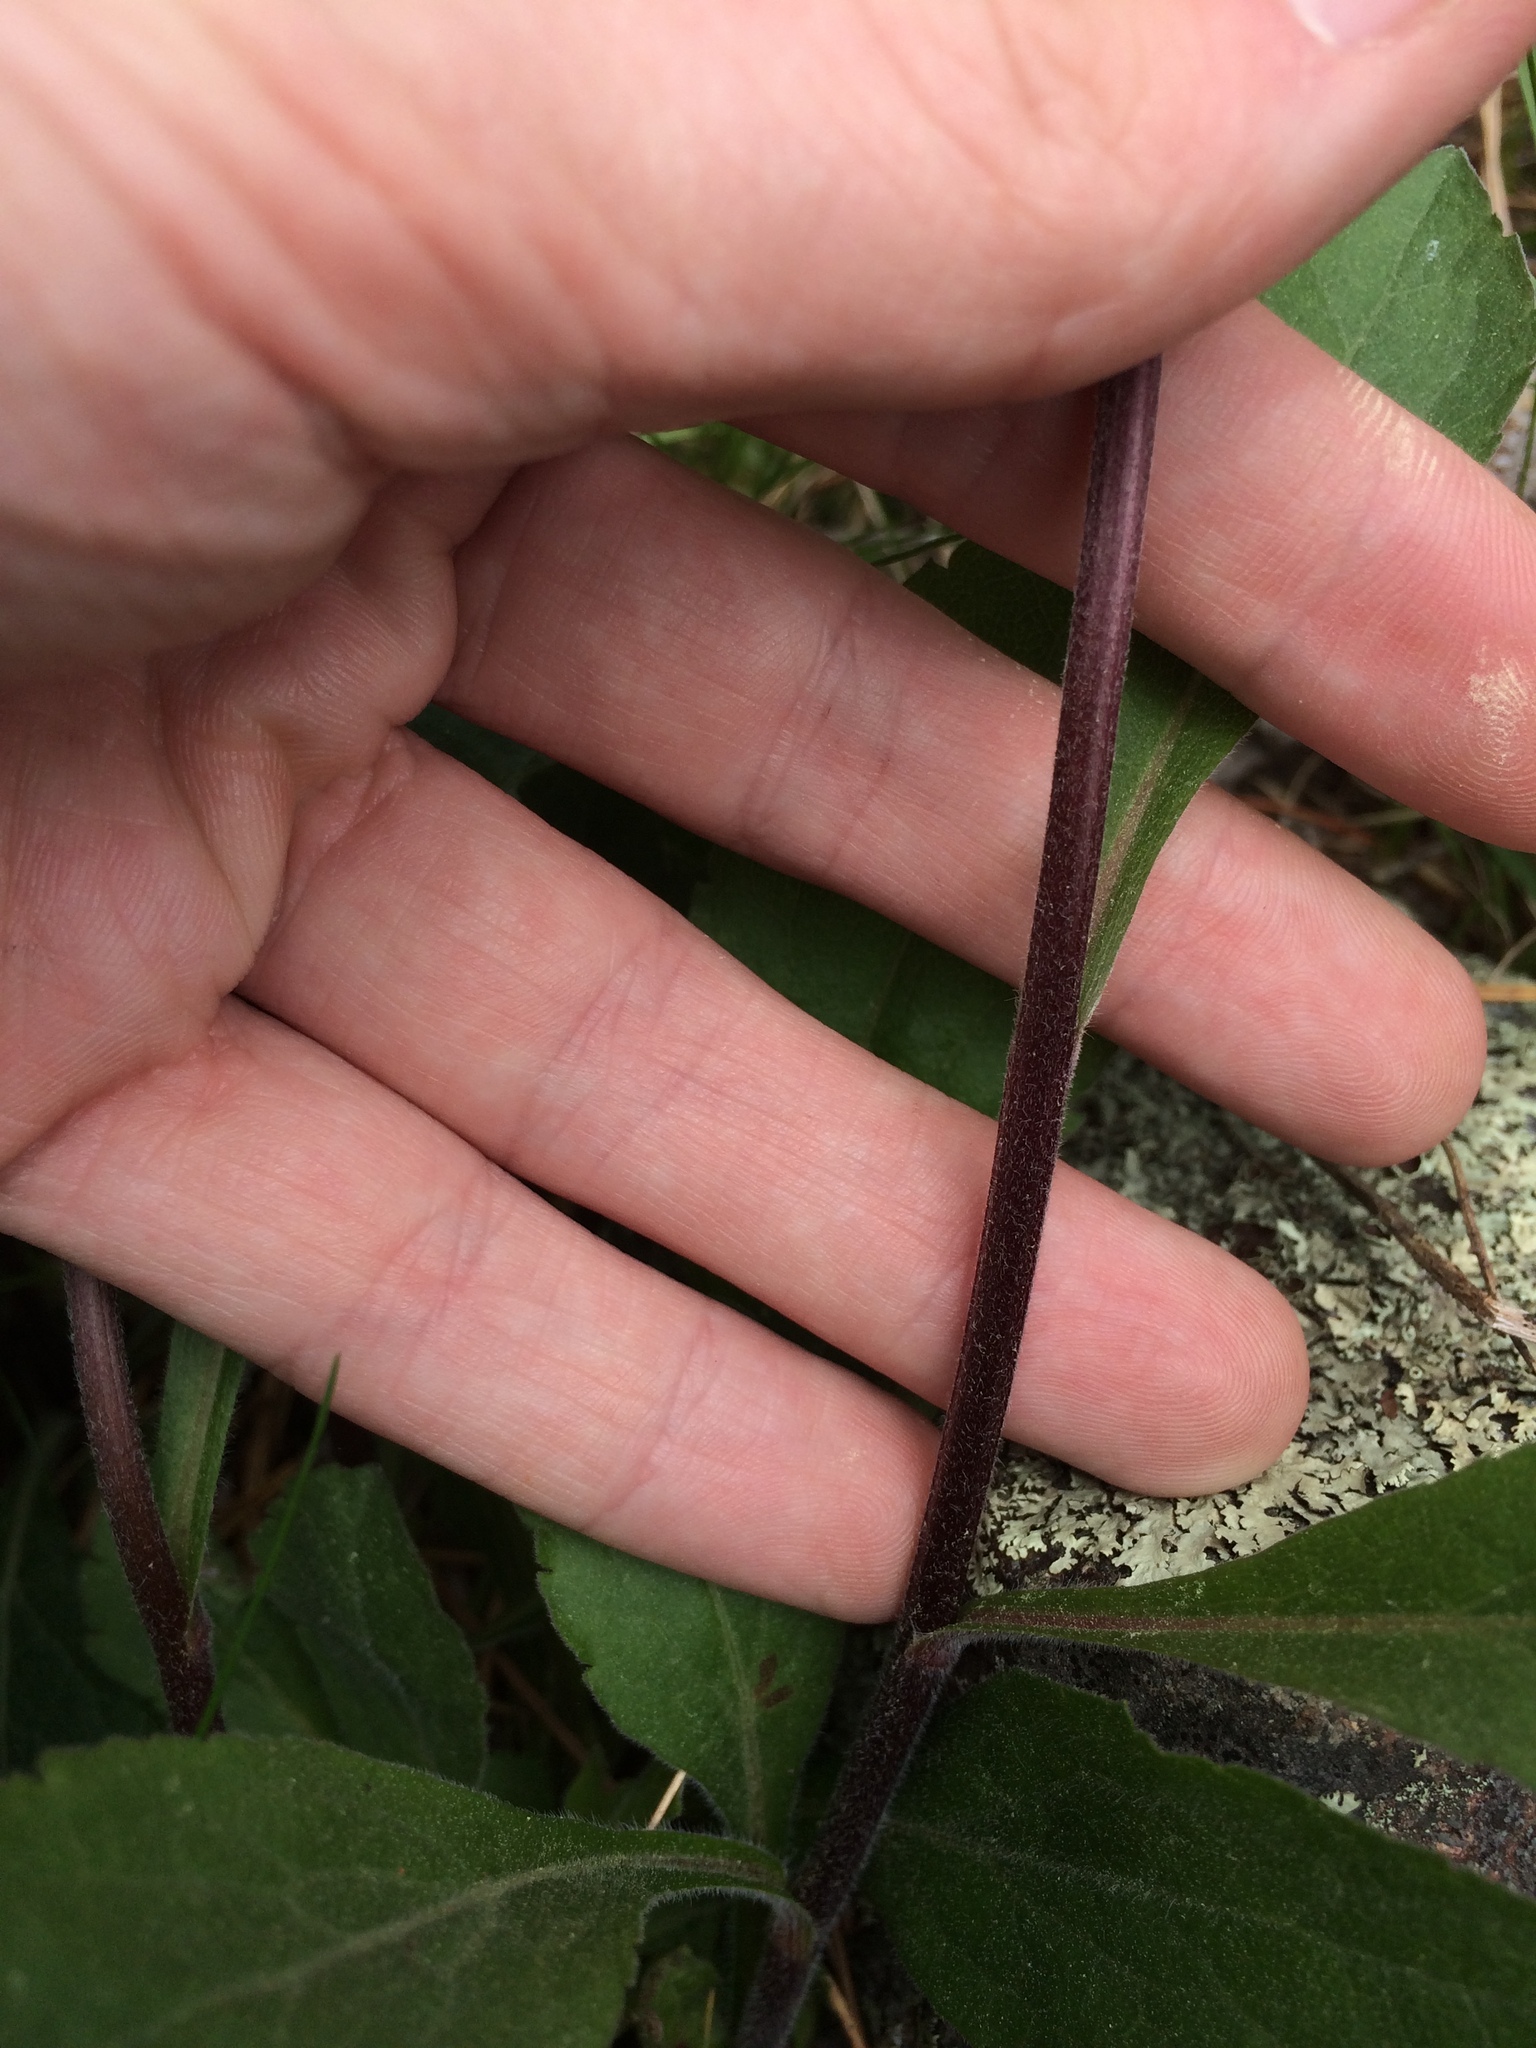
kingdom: Plantae
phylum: Tracheophyta
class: Magnoliopsida
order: Asterales
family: Asteraceae
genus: Solidago
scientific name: Solidago hispida
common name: Hairy goldenrod
